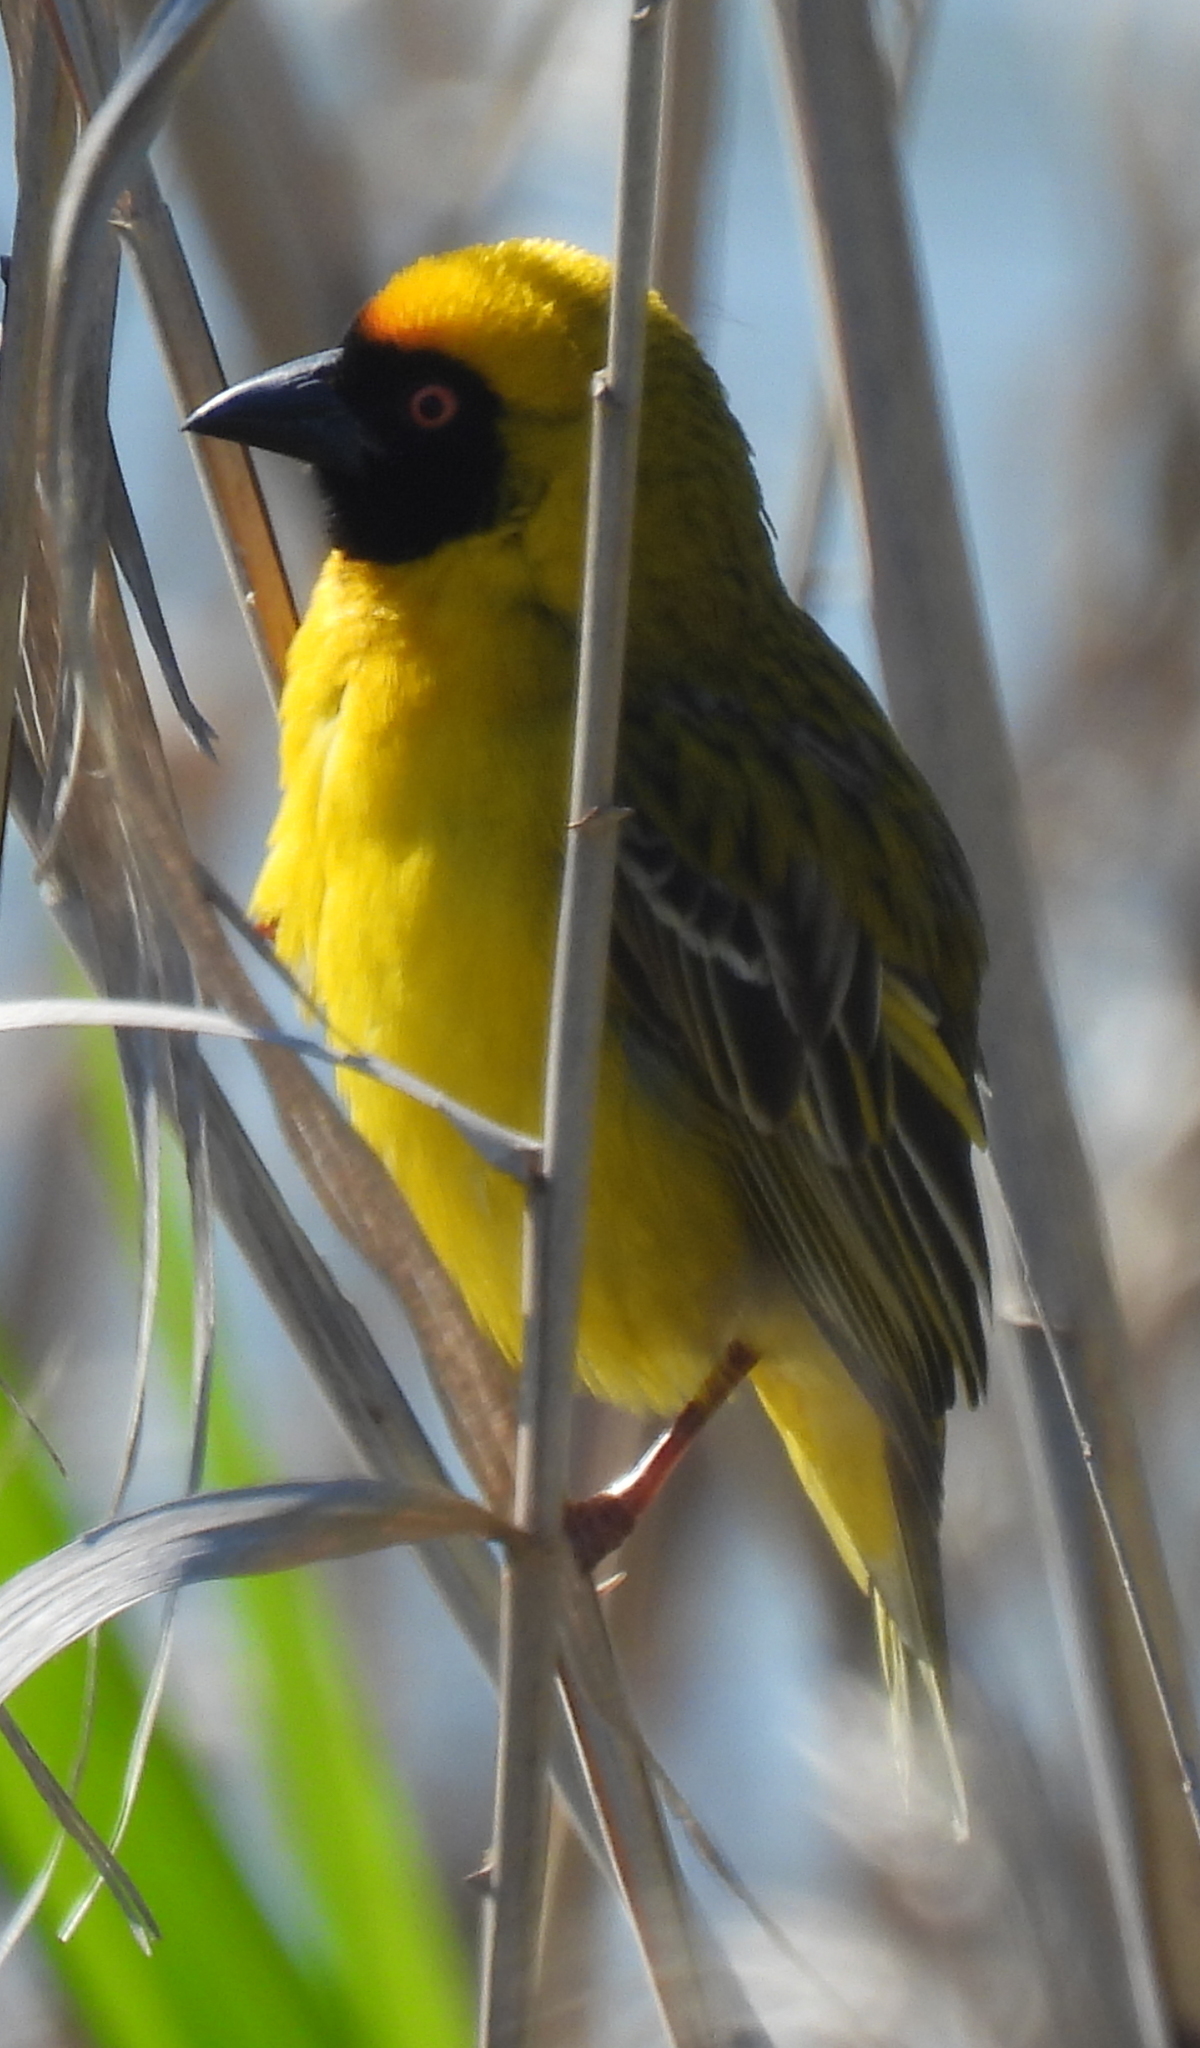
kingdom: Animalia
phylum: Chordata
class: Aves
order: Passeriformes
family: Ploceidae
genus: Ploceus
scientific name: Ploceus velatus
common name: Southern masked weaver
